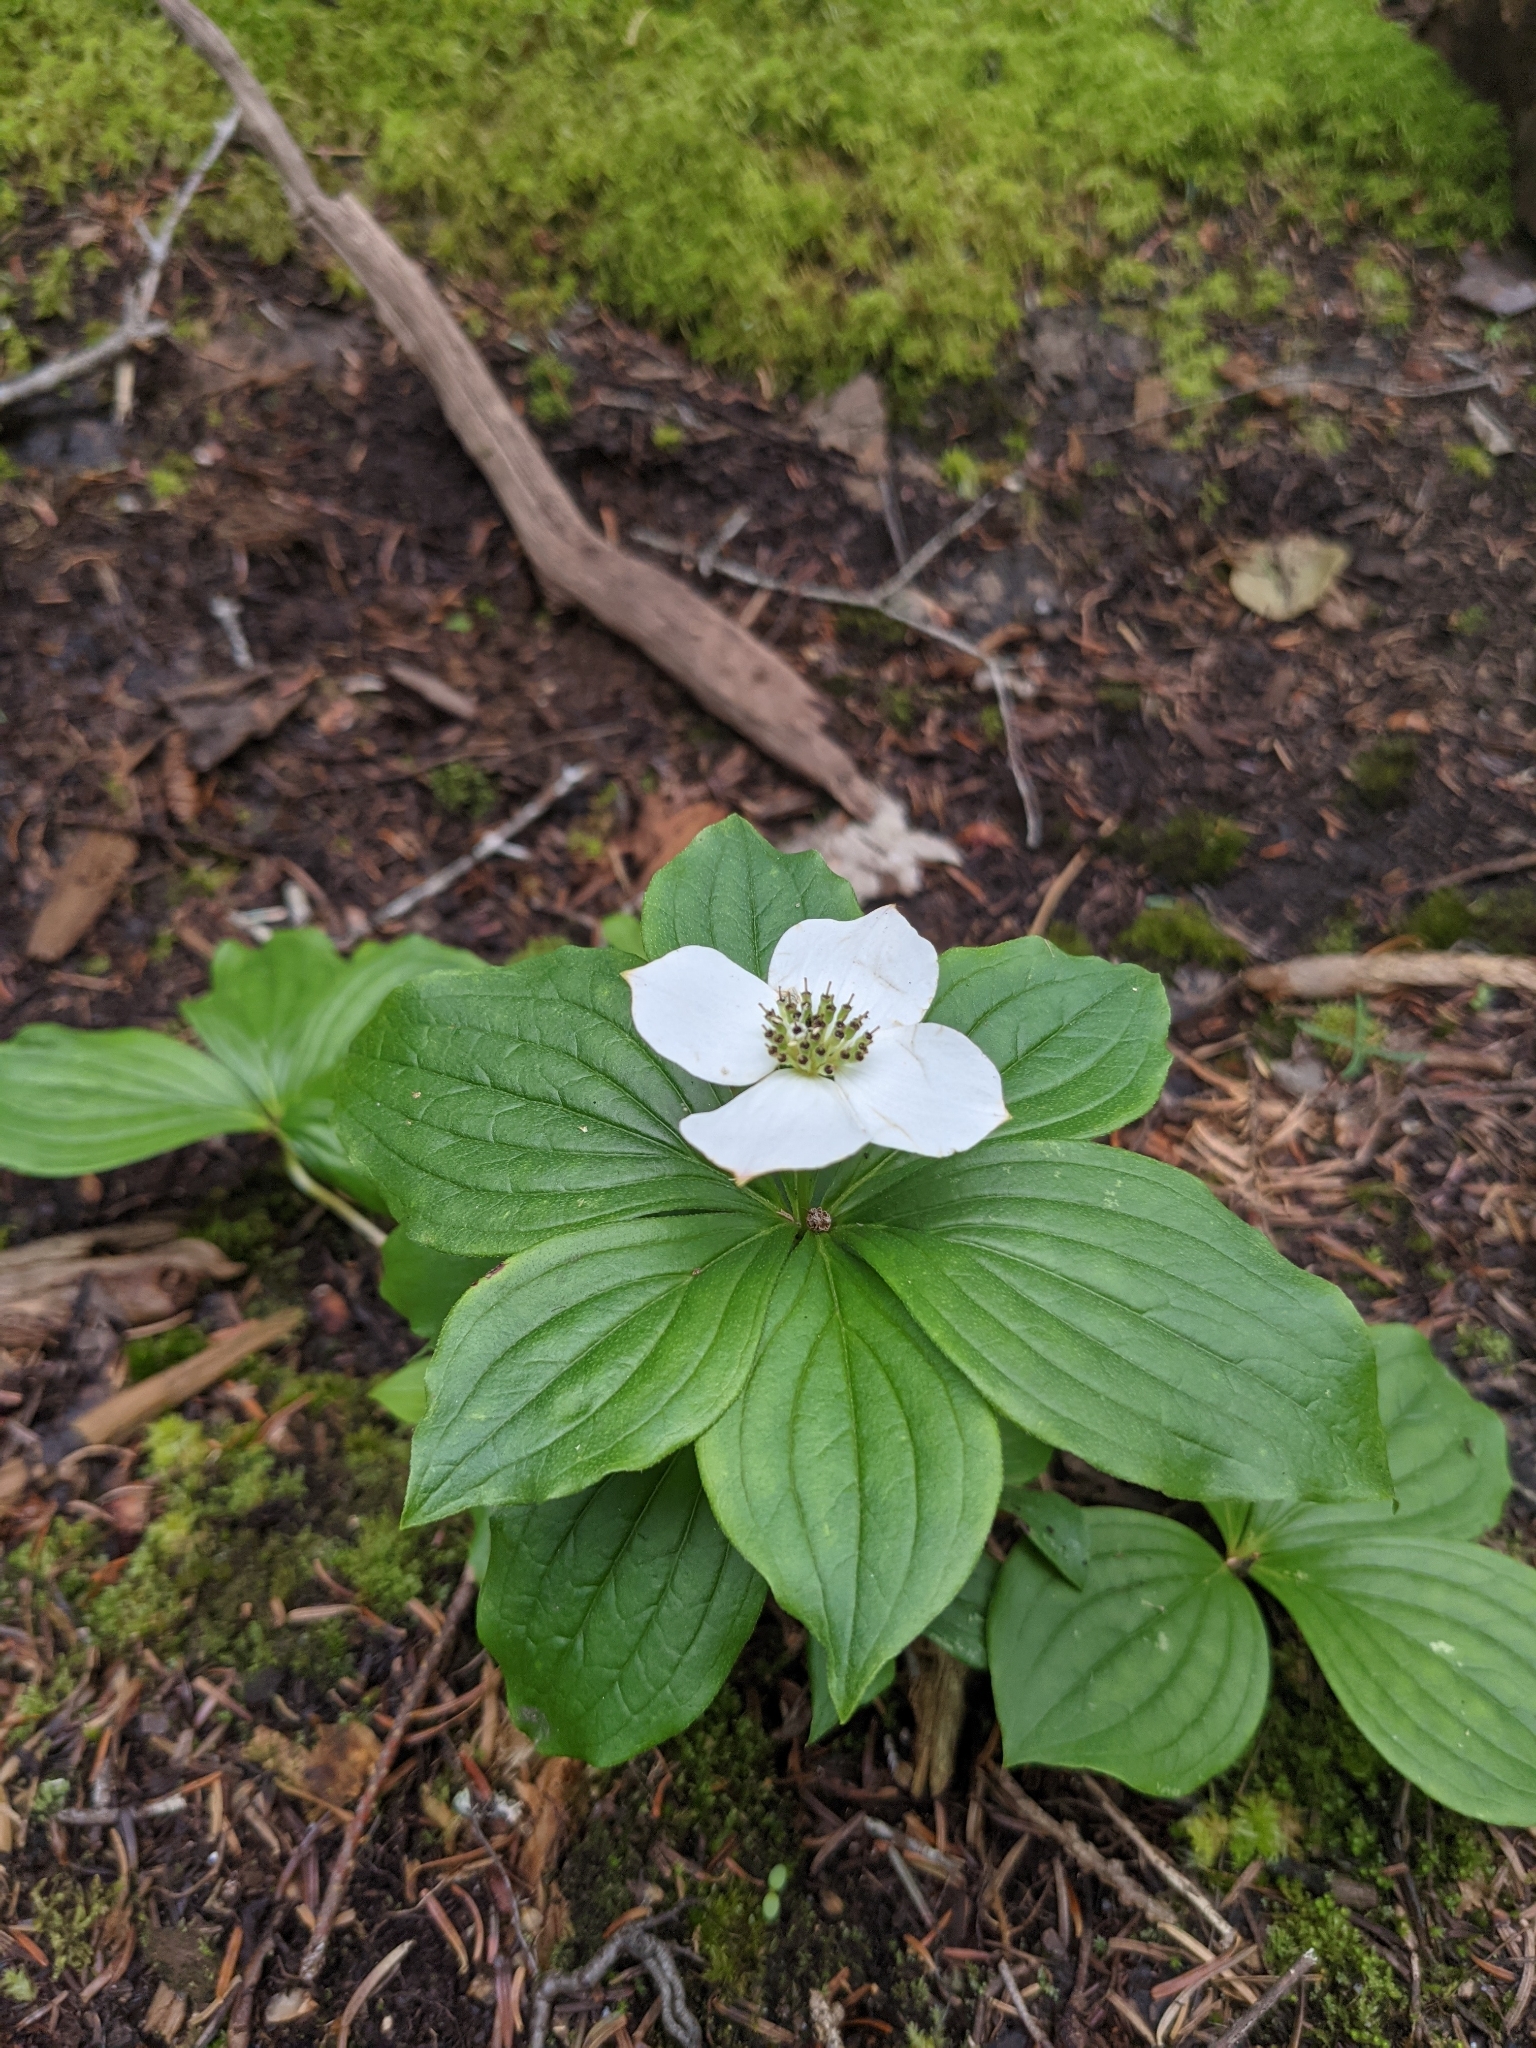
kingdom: Plantae
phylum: Tracheophyta
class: Magnoliopsida
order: Cornales
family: Cornaceae
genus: Cornus
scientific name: Cornus canadensis
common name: Creeping dogwood
